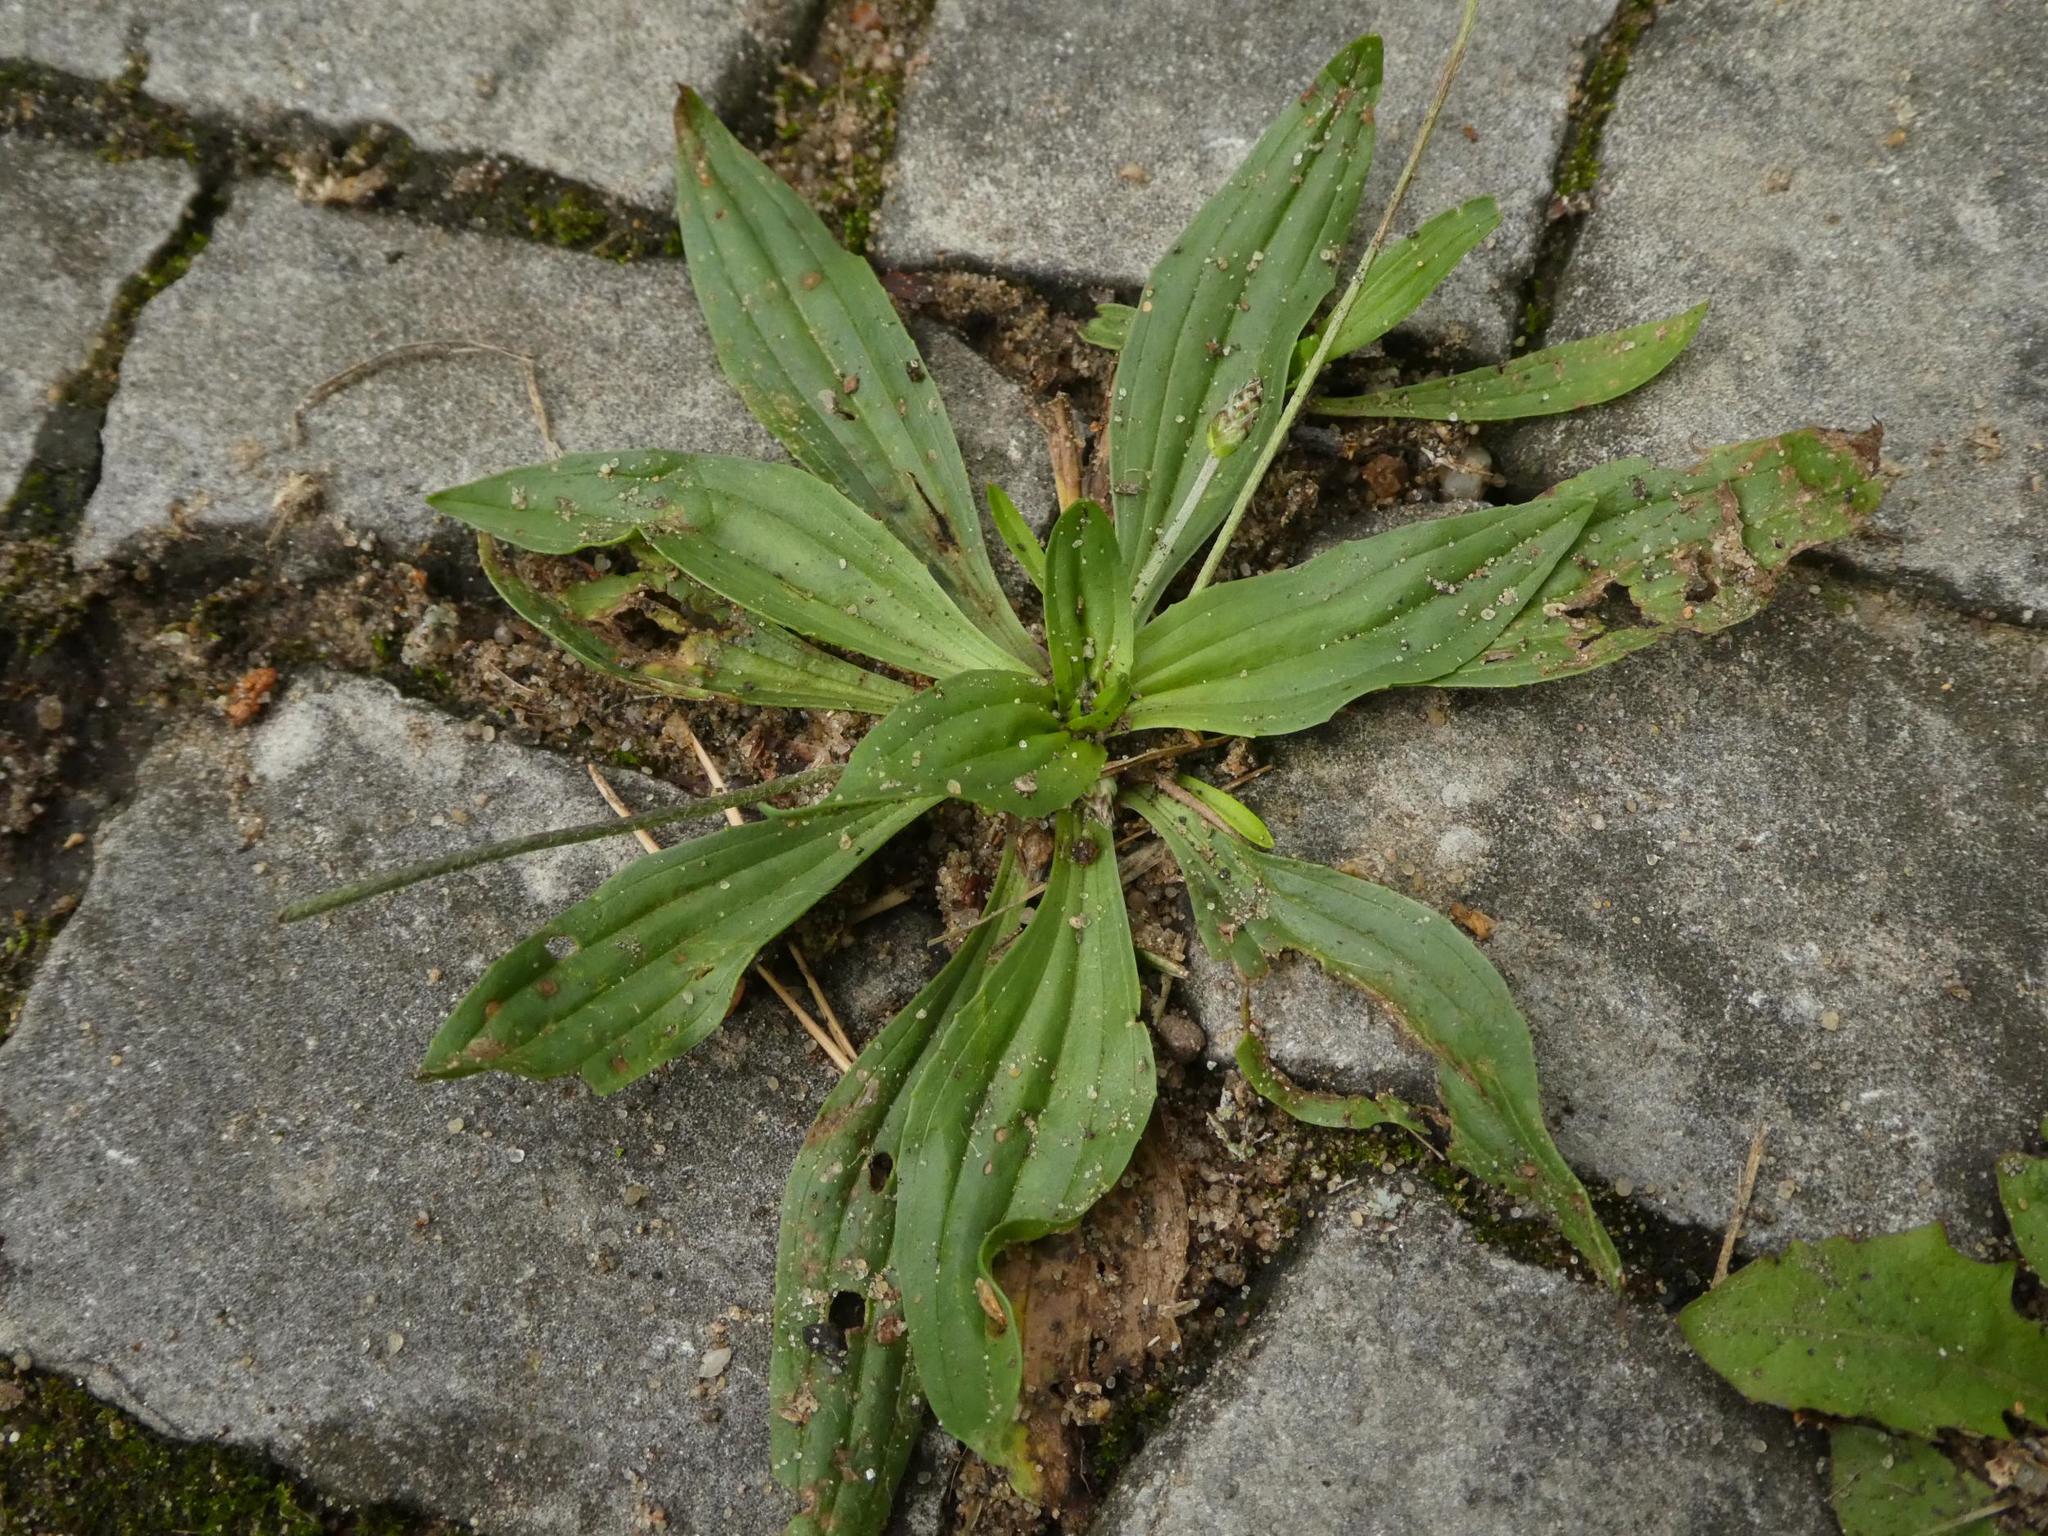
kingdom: Plantae
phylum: Tracheophyta
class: Magnoliopsida
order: Lamiales
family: Plantaginaceae
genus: Plantago
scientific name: Plantago lanceolata
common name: Ribwort plantain
